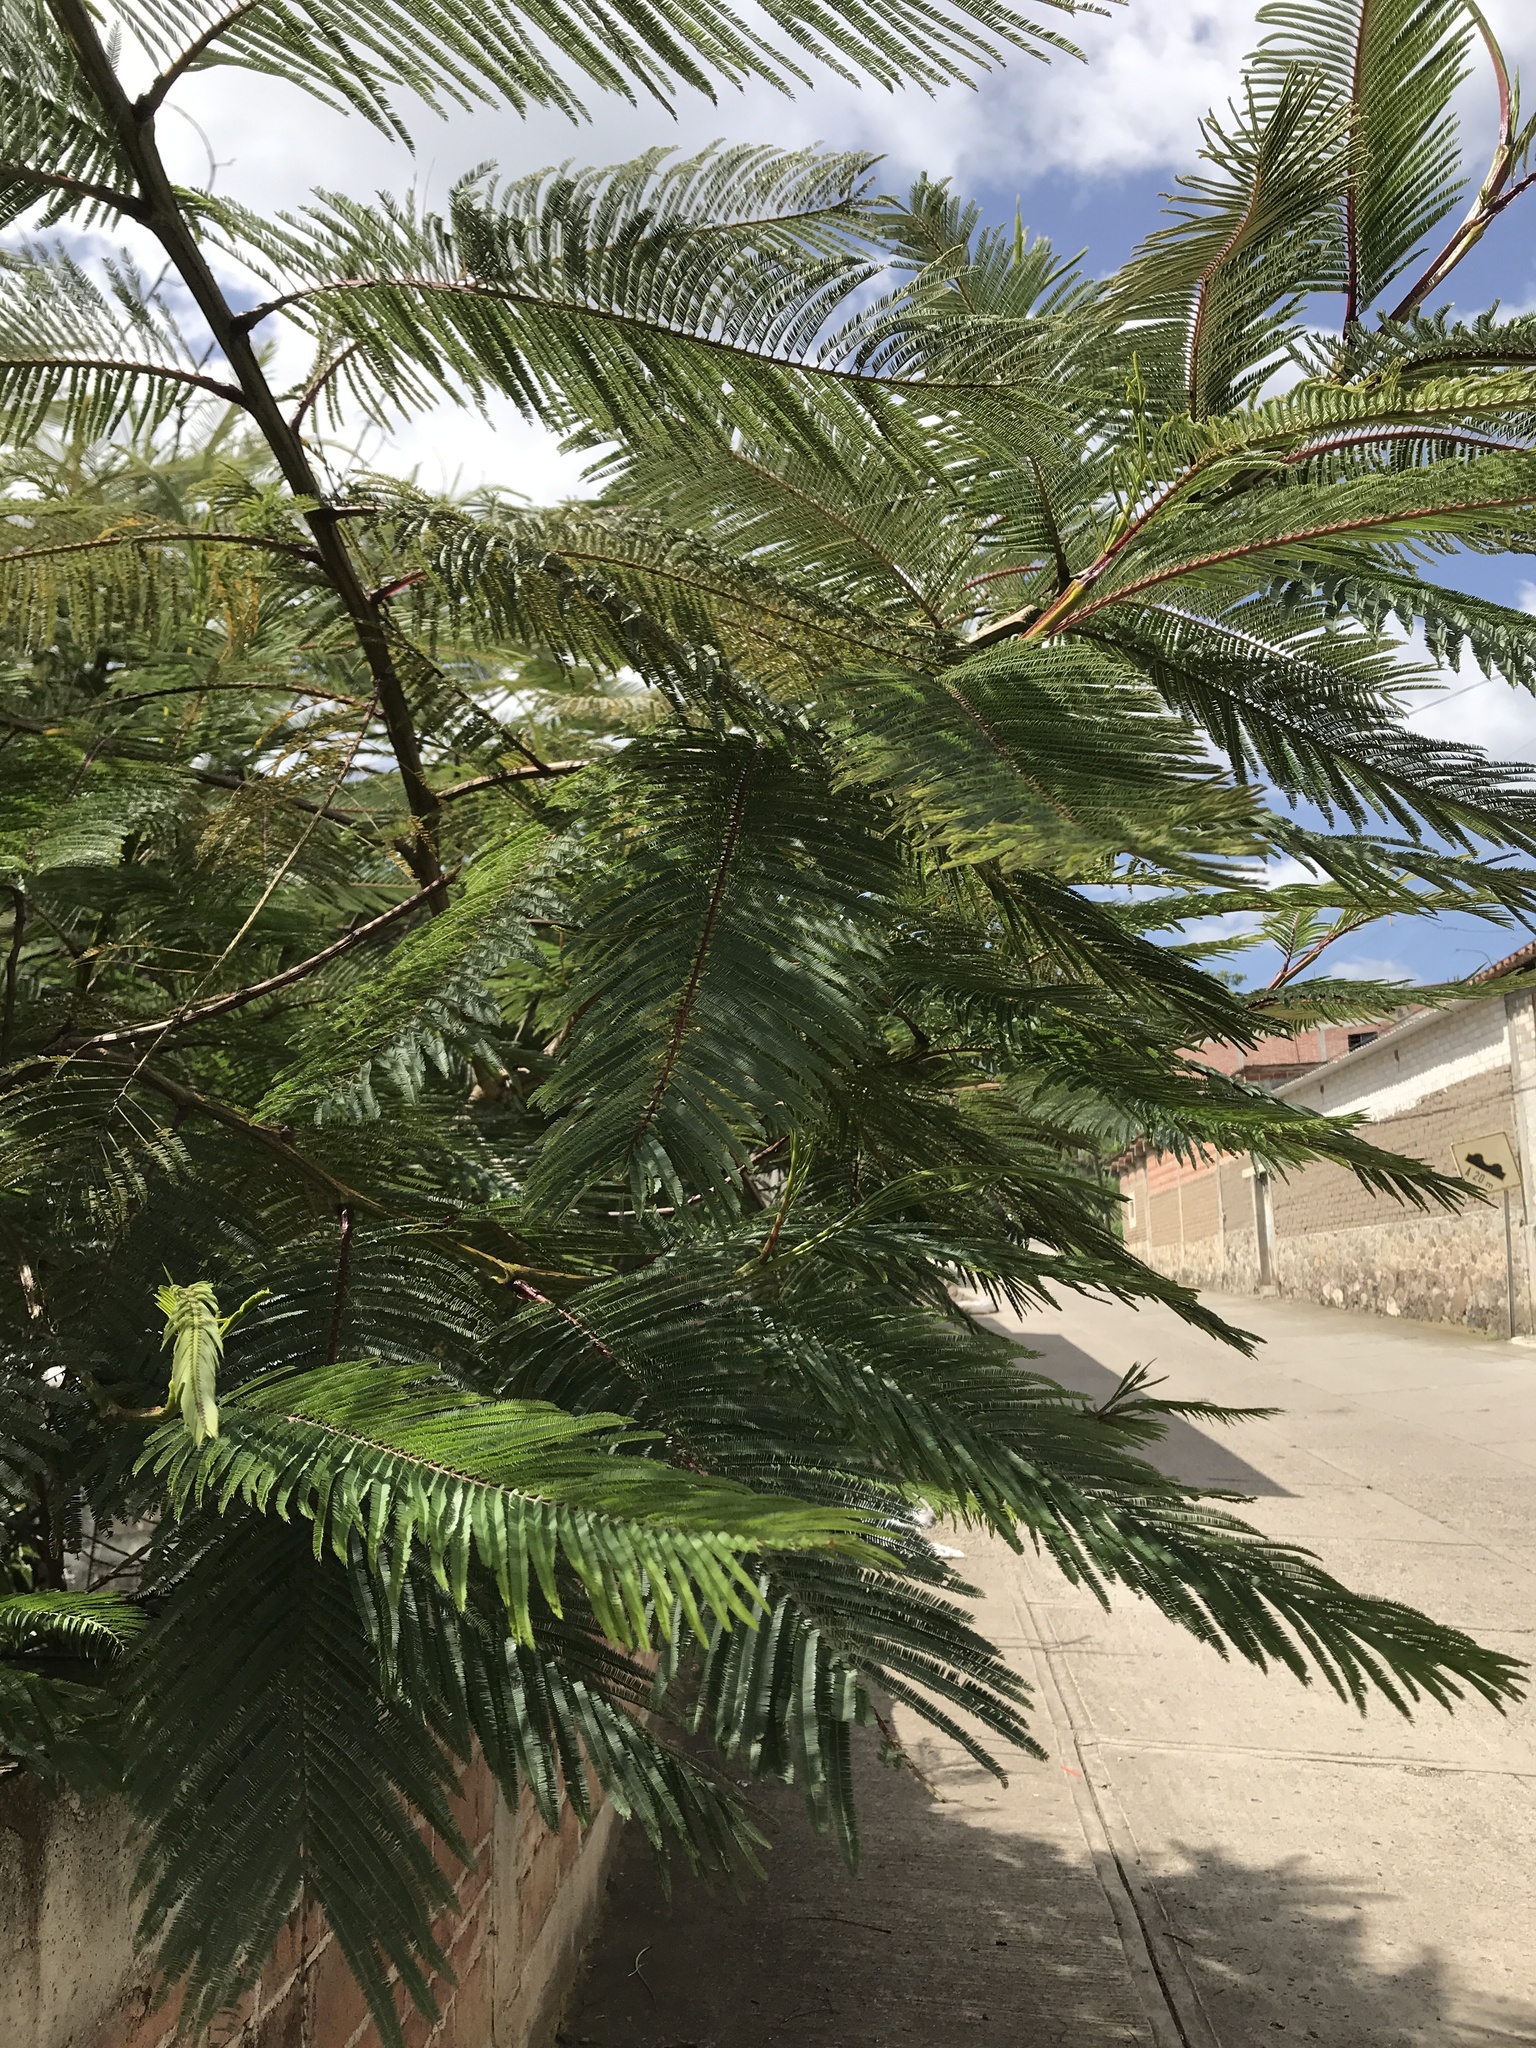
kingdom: Plantae
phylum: Tracheophyta
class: Magnoliopsida
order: Fabales
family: Fabaceae
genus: Vachellia
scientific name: Vachellia pennatula
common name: Fern-leaf acacia
